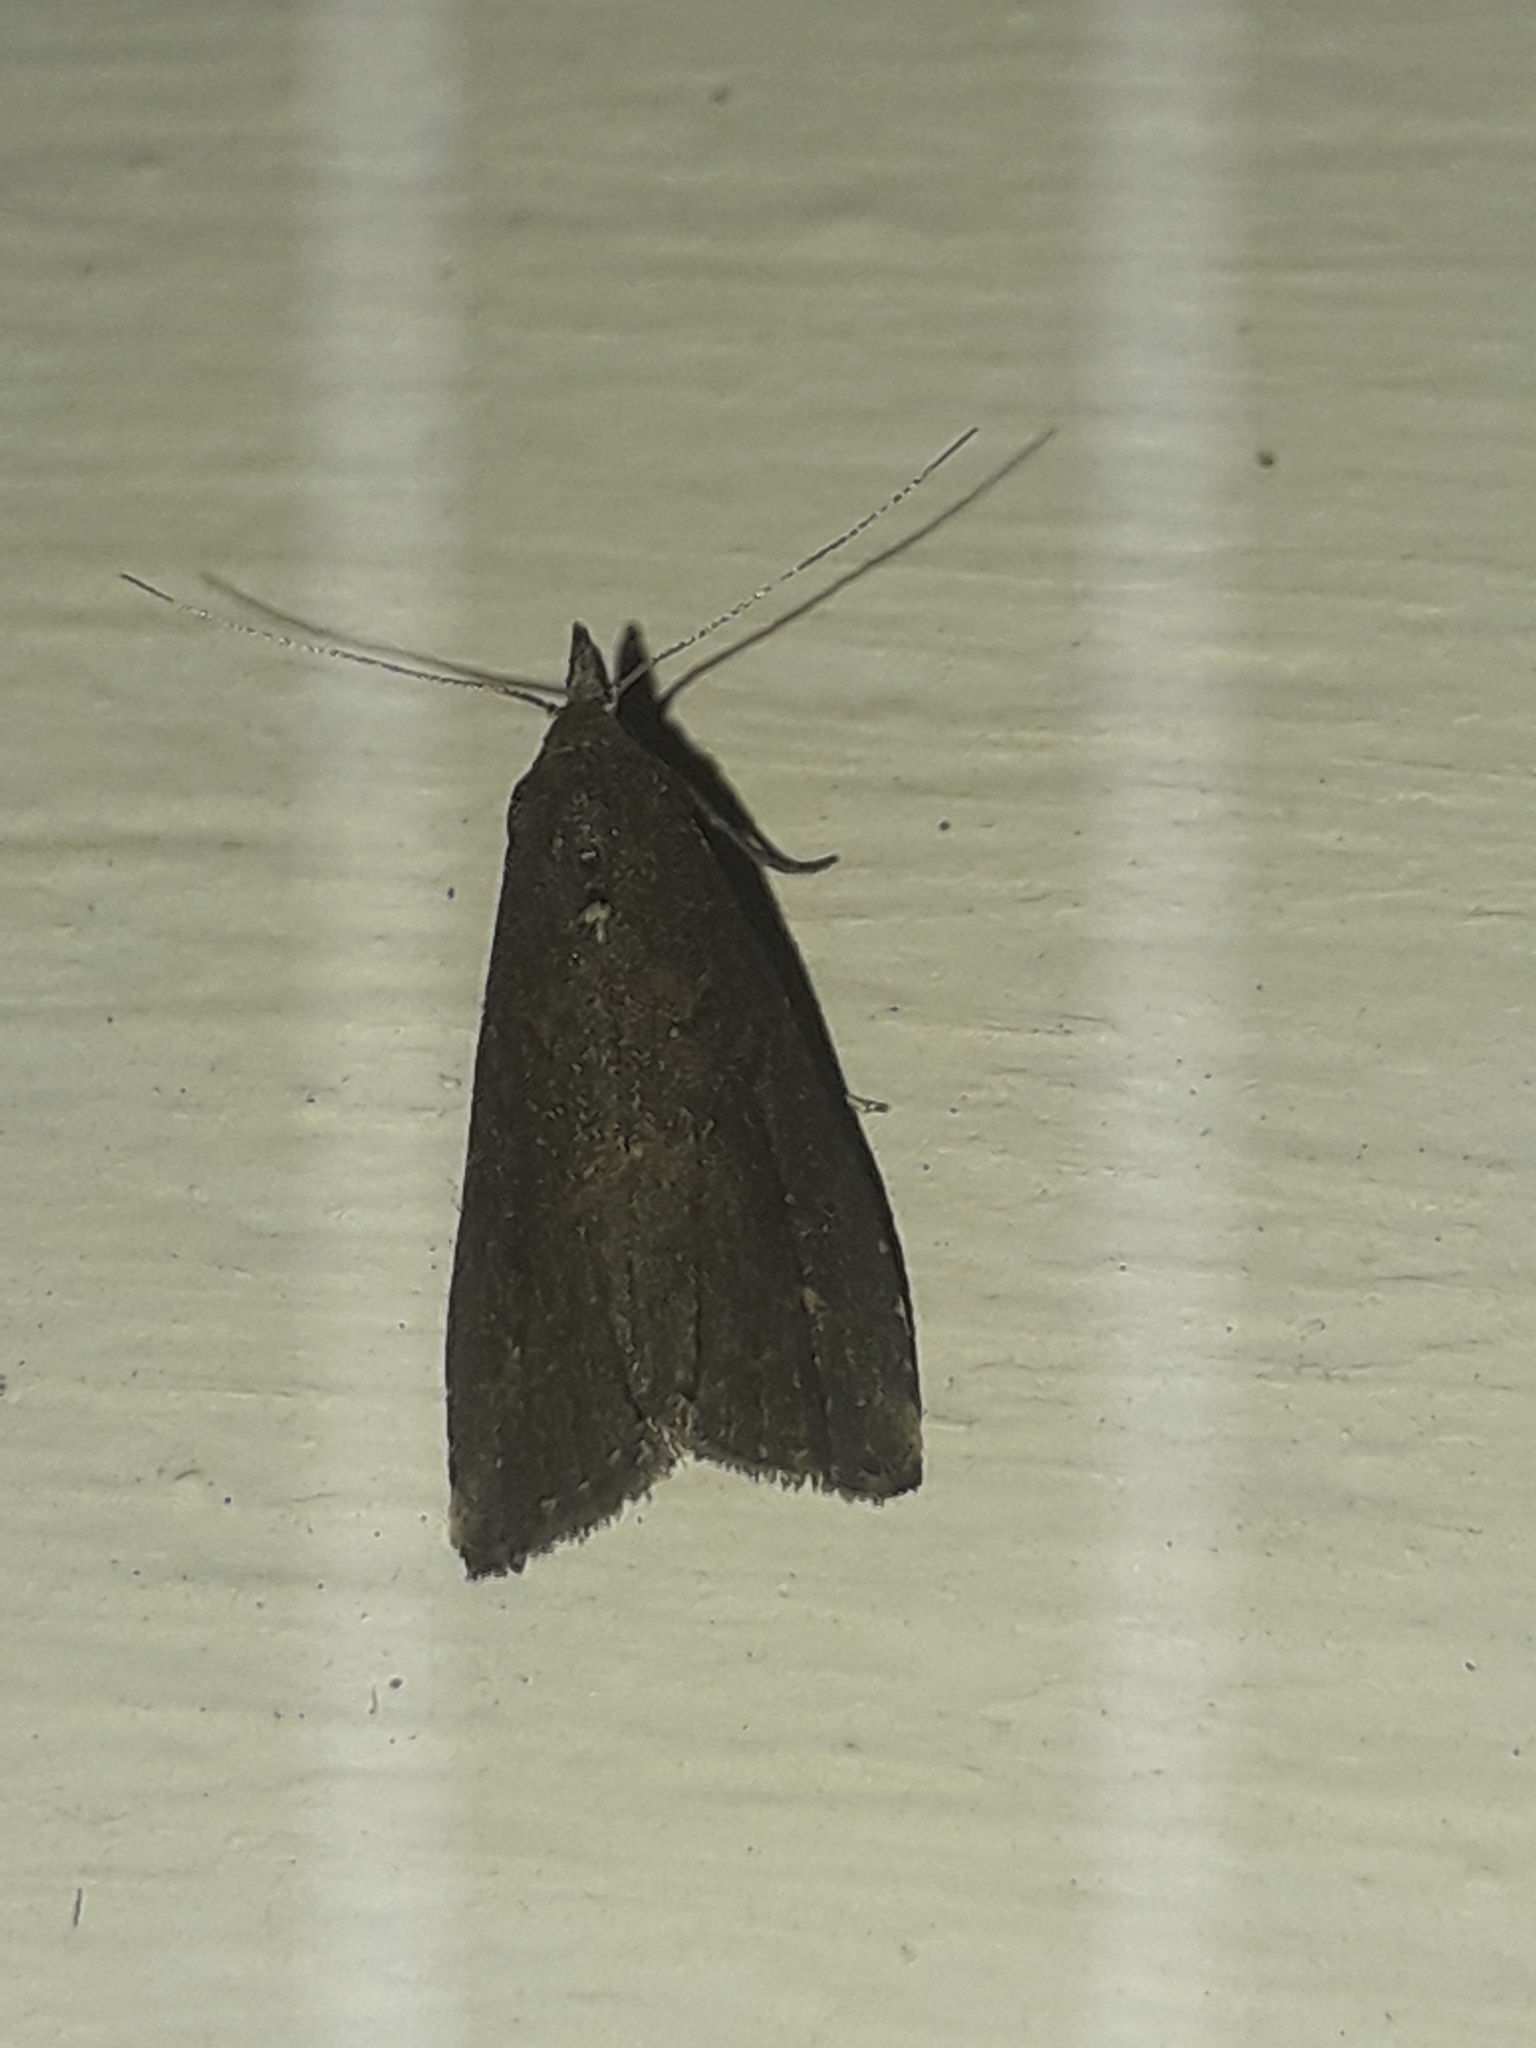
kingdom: Animalia
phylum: Arthropoda
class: Insecta
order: Lepidoptera
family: Erebidae
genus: Schrankia
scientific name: Schrankia costaestrigalis
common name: Pinion-streaked snout
